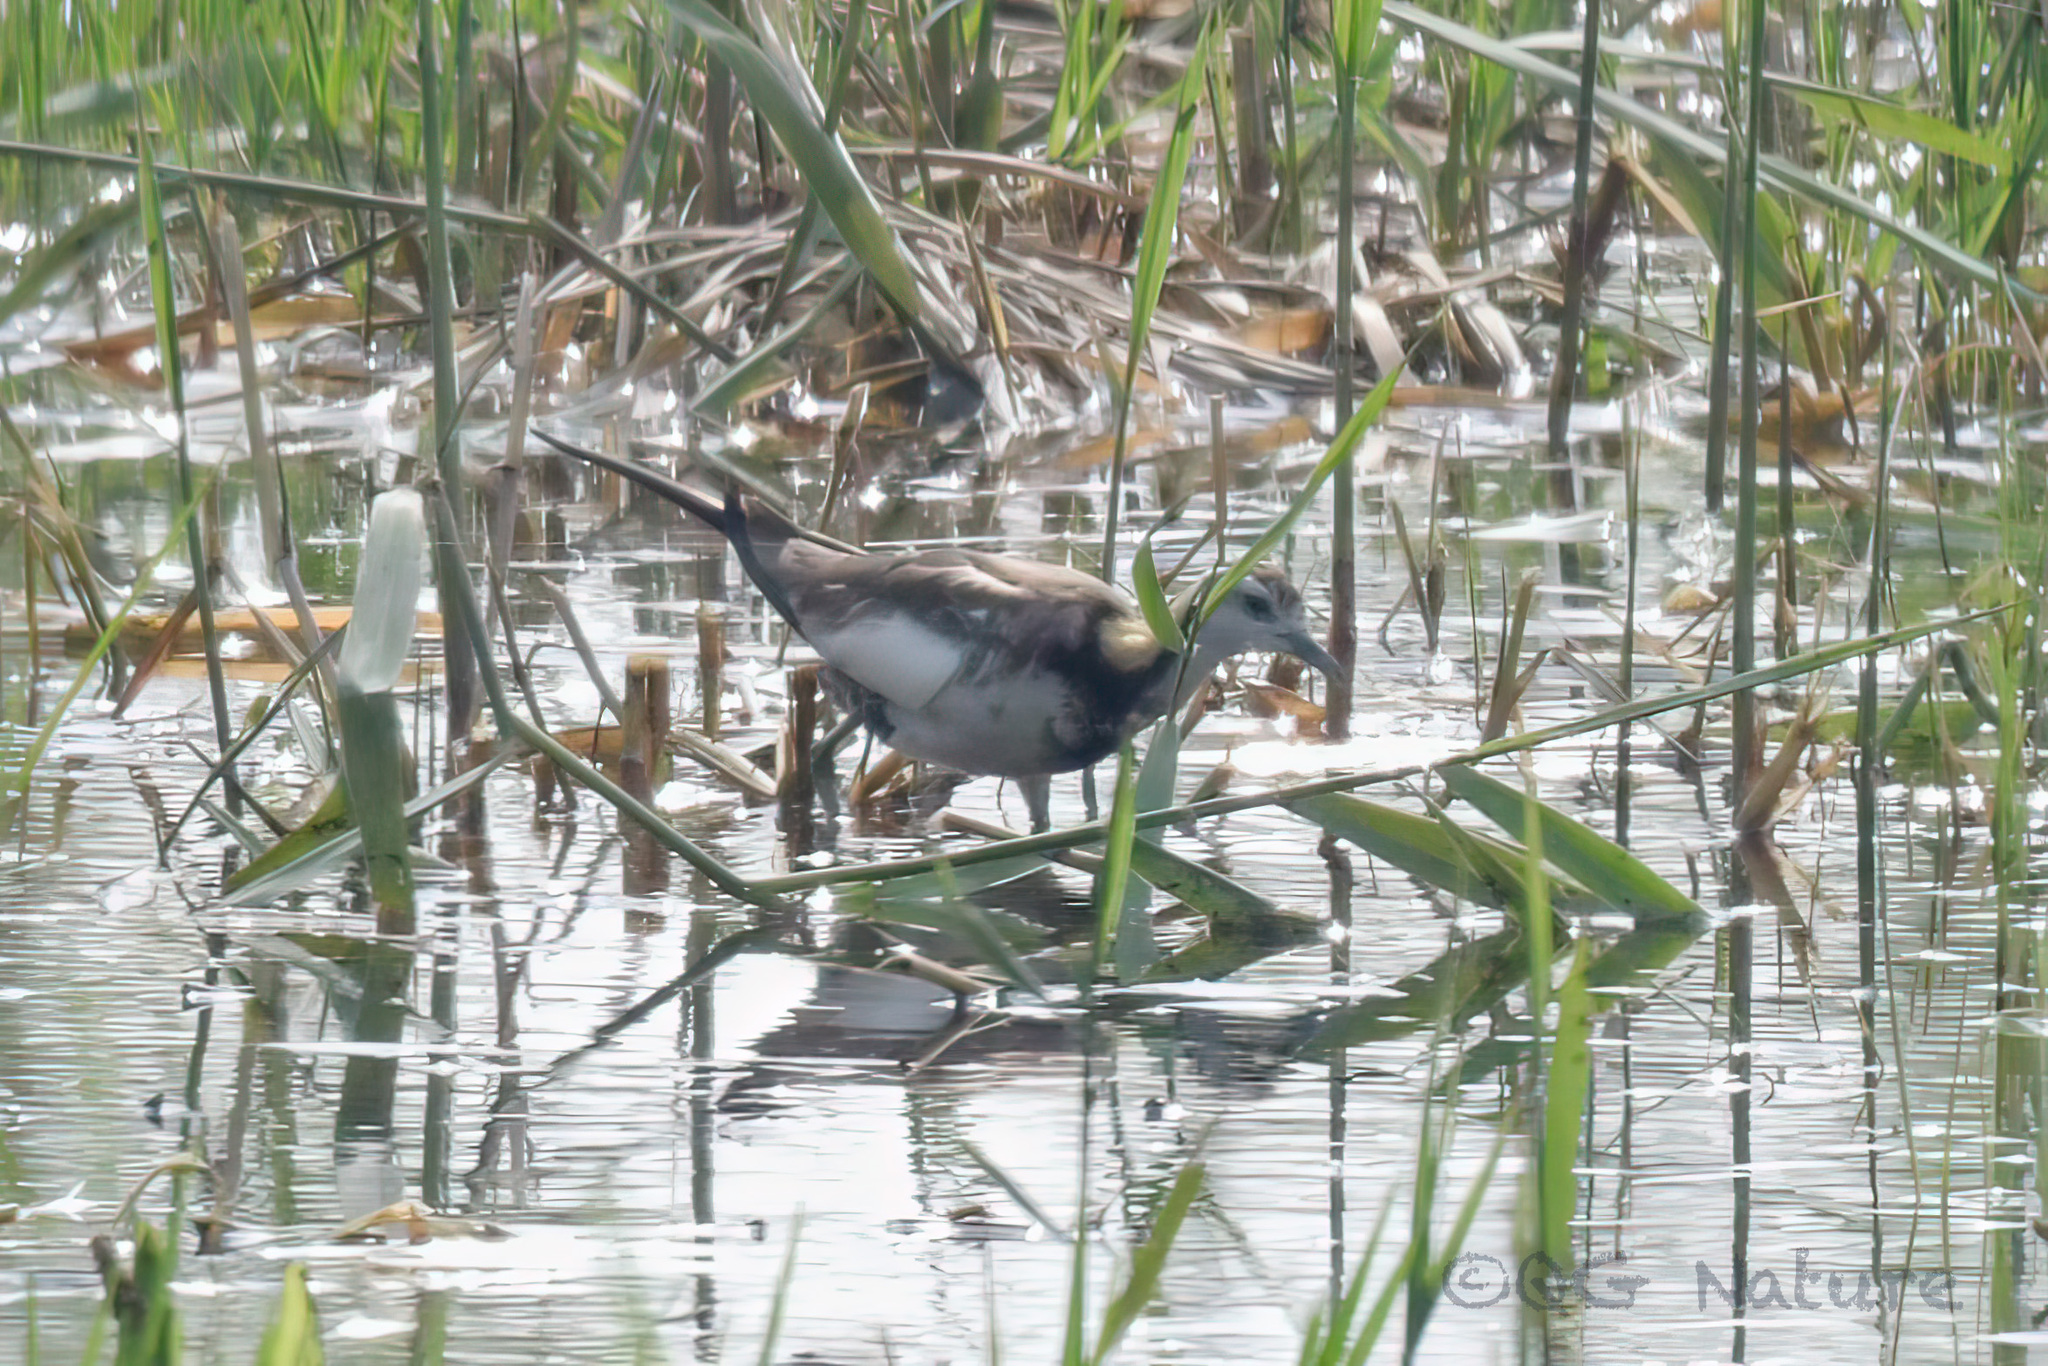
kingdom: Animalia
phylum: Chordata
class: Aves
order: Charadriiformes
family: Jacanidae
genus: Hydrophasianus
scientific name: Hydrophasianus chirurgus
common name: Pheasant-tailed jacana
